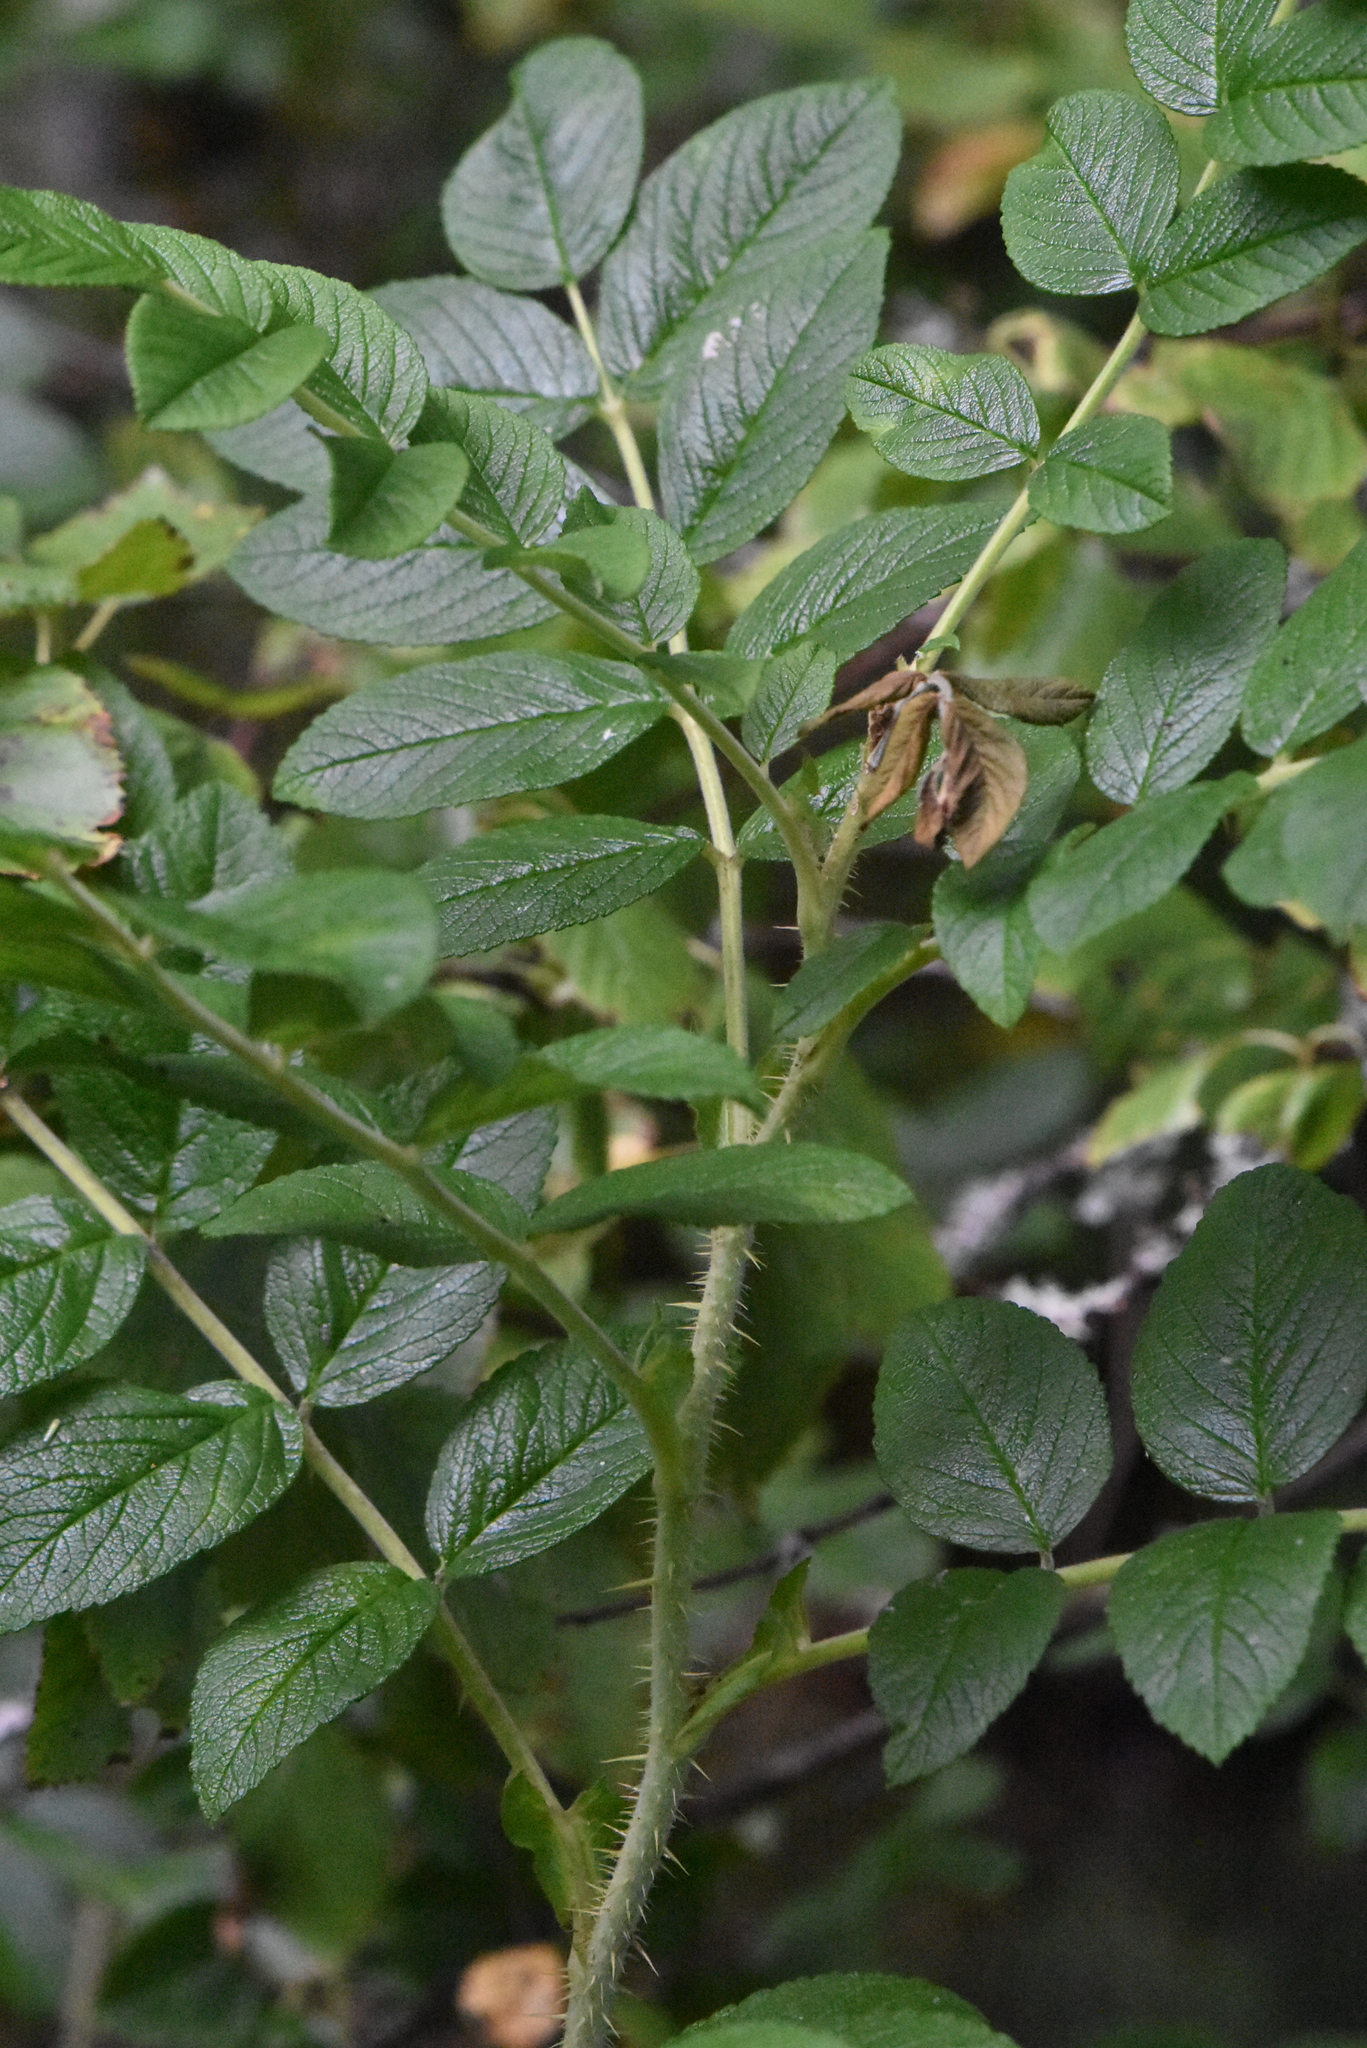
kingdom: Plantae
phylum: Tracheophyta
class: Magnoliopsida
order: Rosales
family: Rosaceae
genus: Rosa
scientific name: Rosa rugosa
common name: Japanese rose
